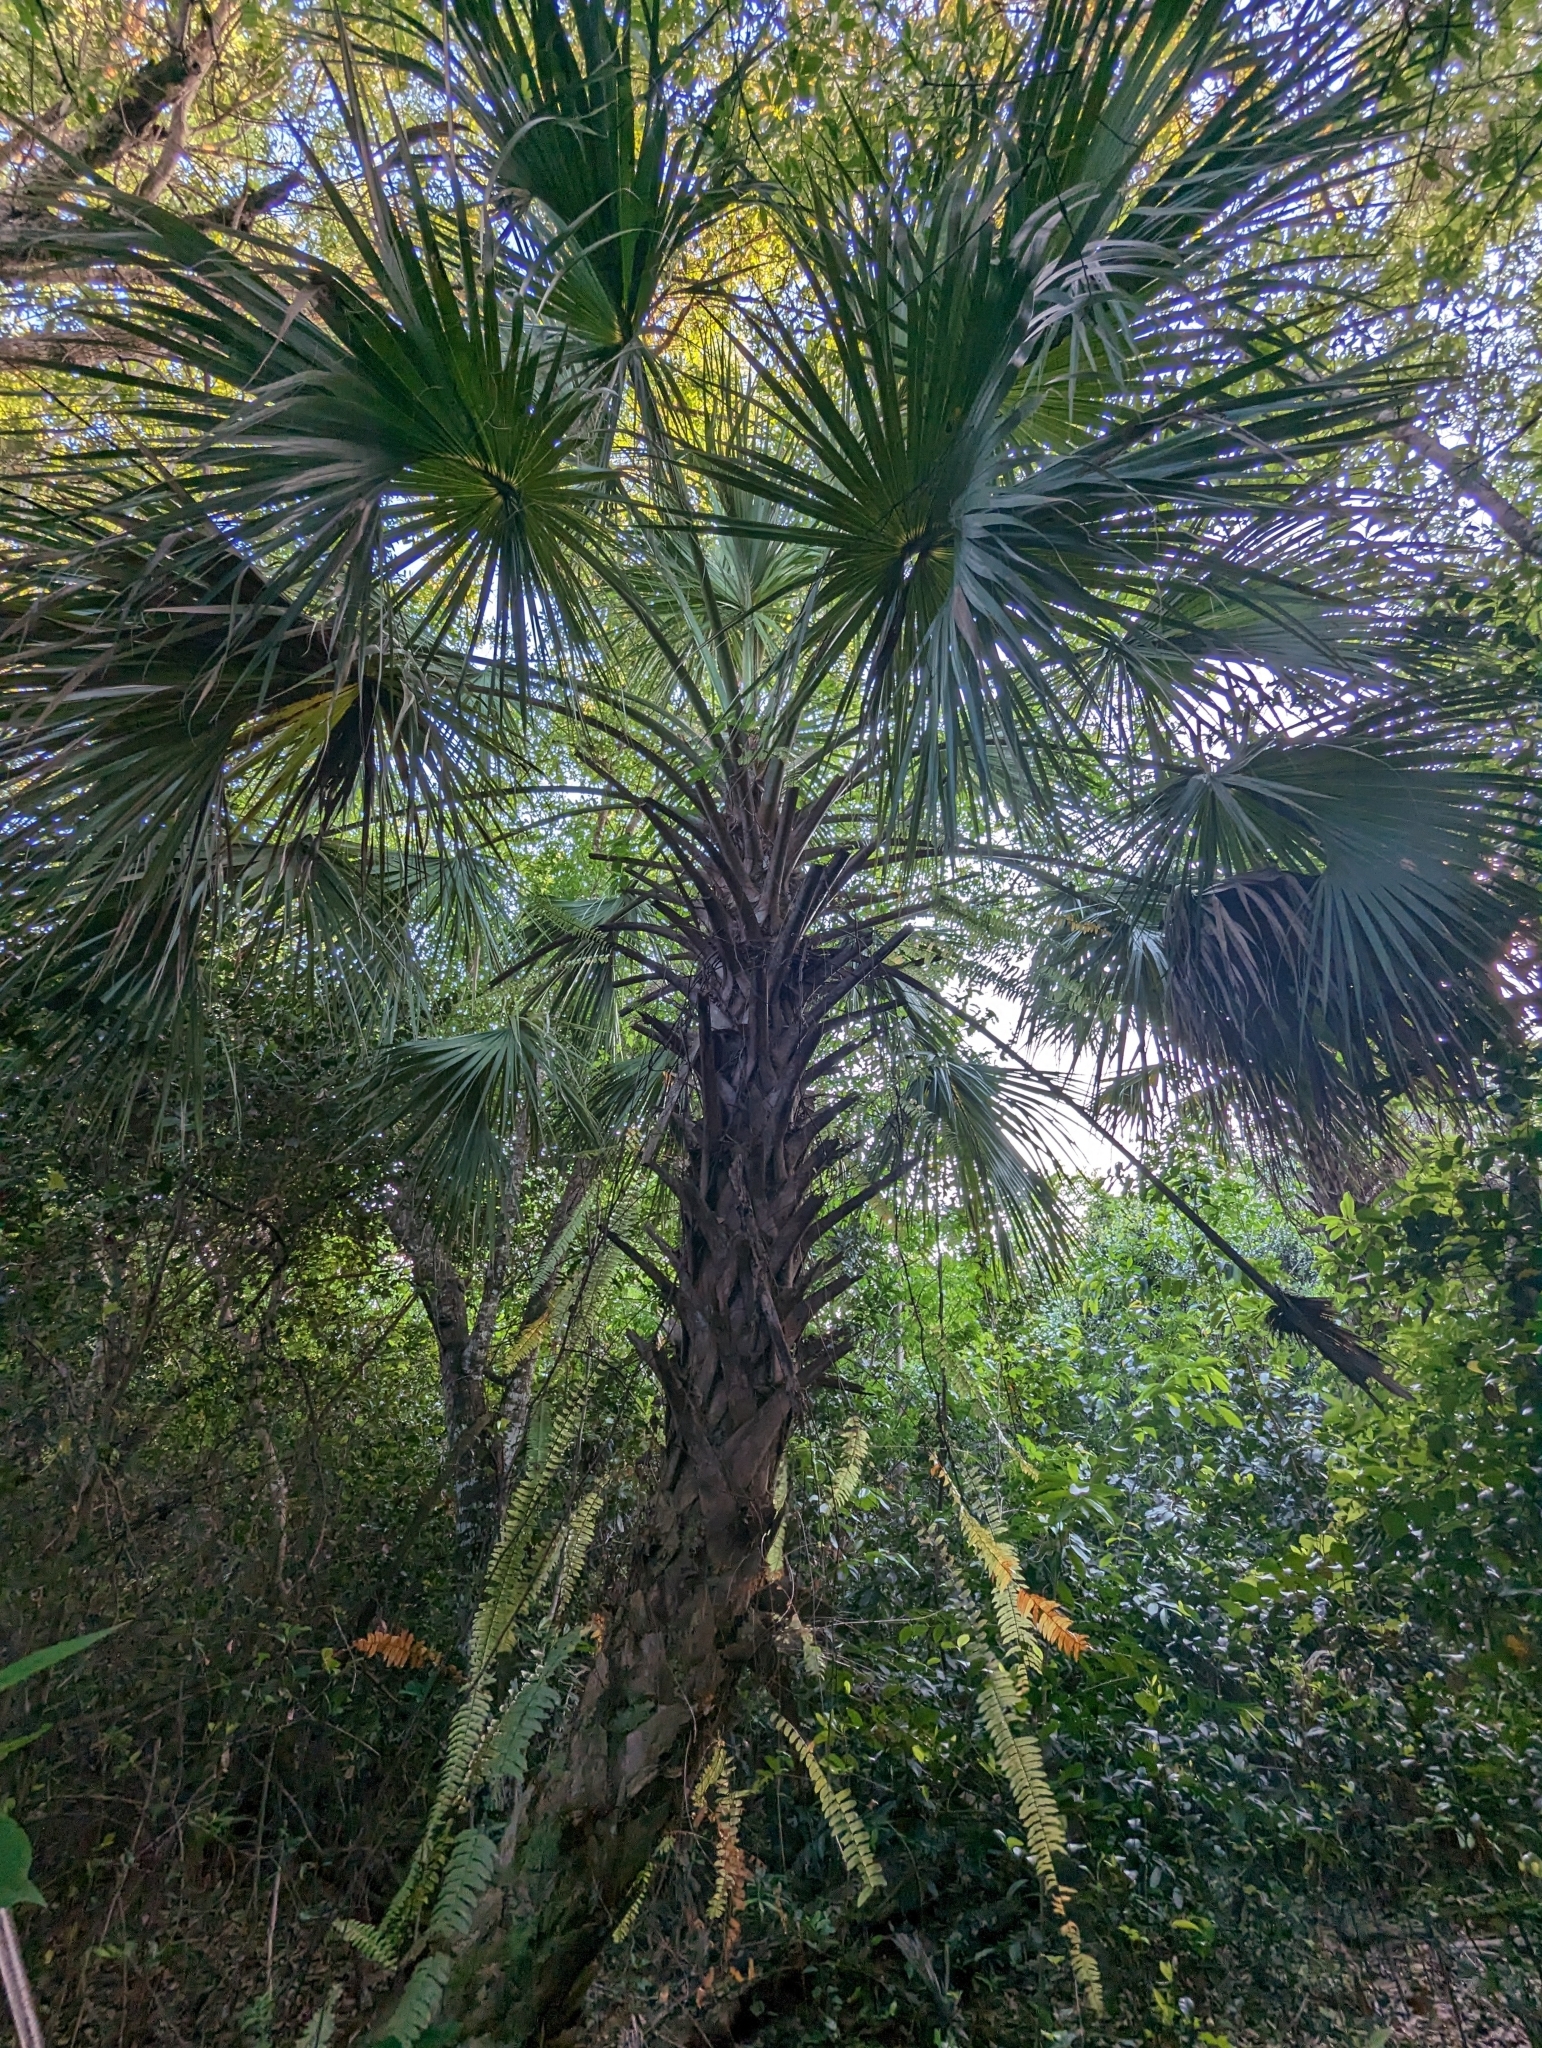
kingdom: Plantae
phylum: Tracheophyta
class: Liliopsida
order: Arecales
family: Arecaceae
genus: Sabal
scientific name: Sabal palmetto
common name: Blue palmetto
